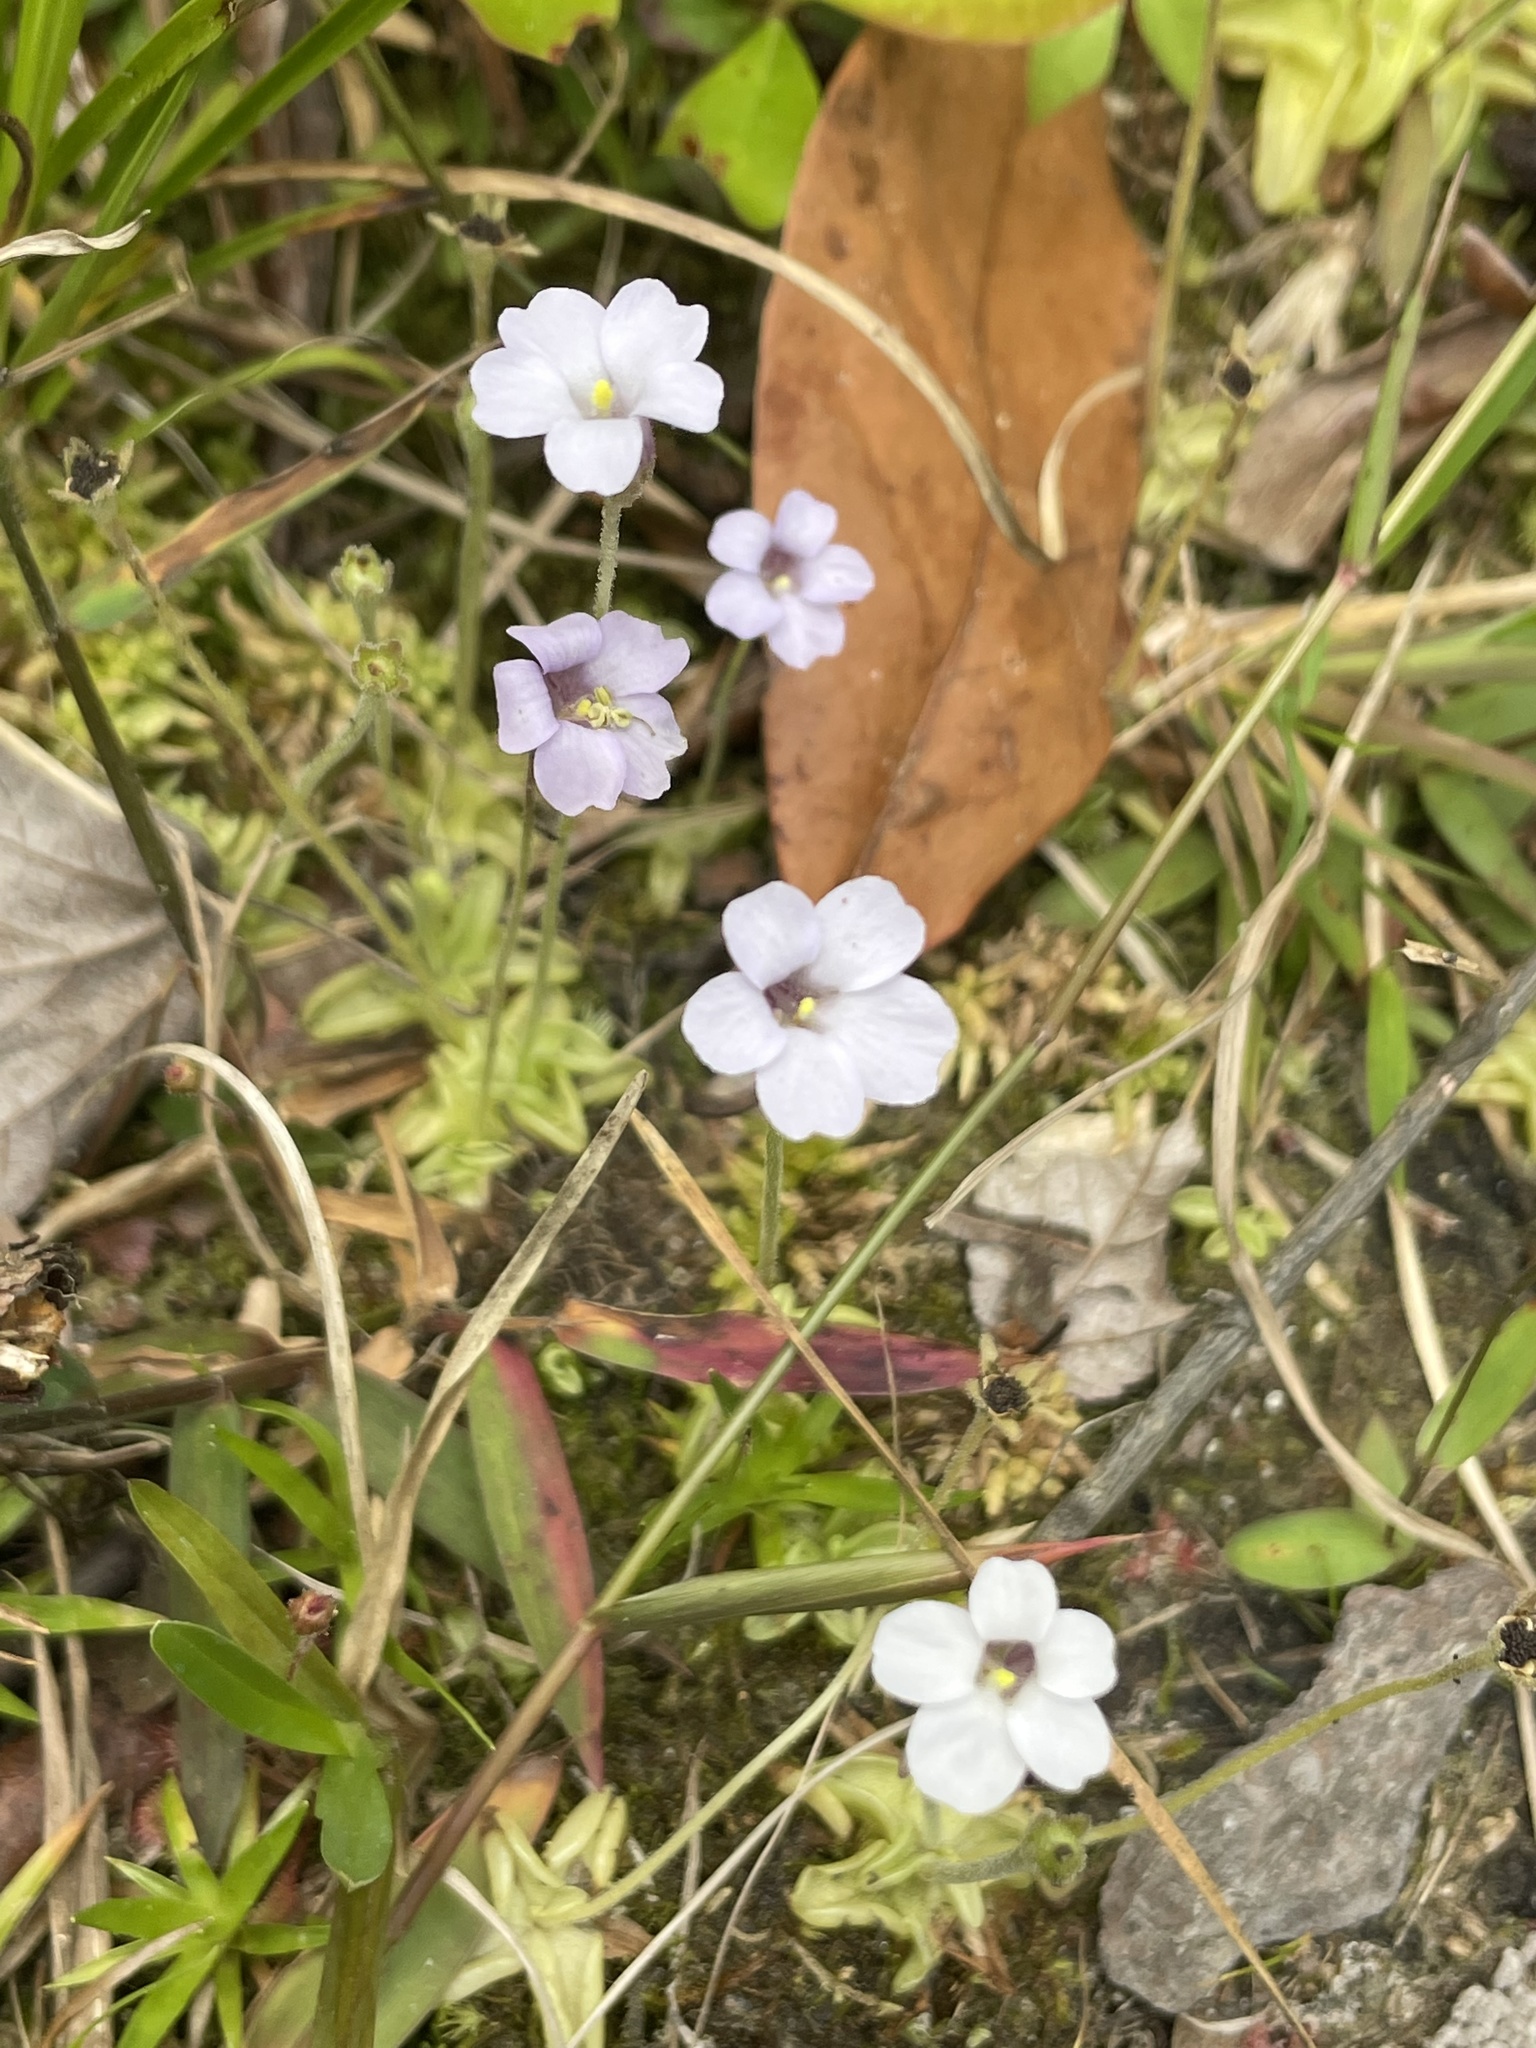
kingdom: Plantae
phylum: Tracheophyta
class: Magnoliopsida
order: Lamiales
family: Lentibulariaceae
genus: Pinguicula
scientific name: Pinguicula pumila
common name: Small butterwort
